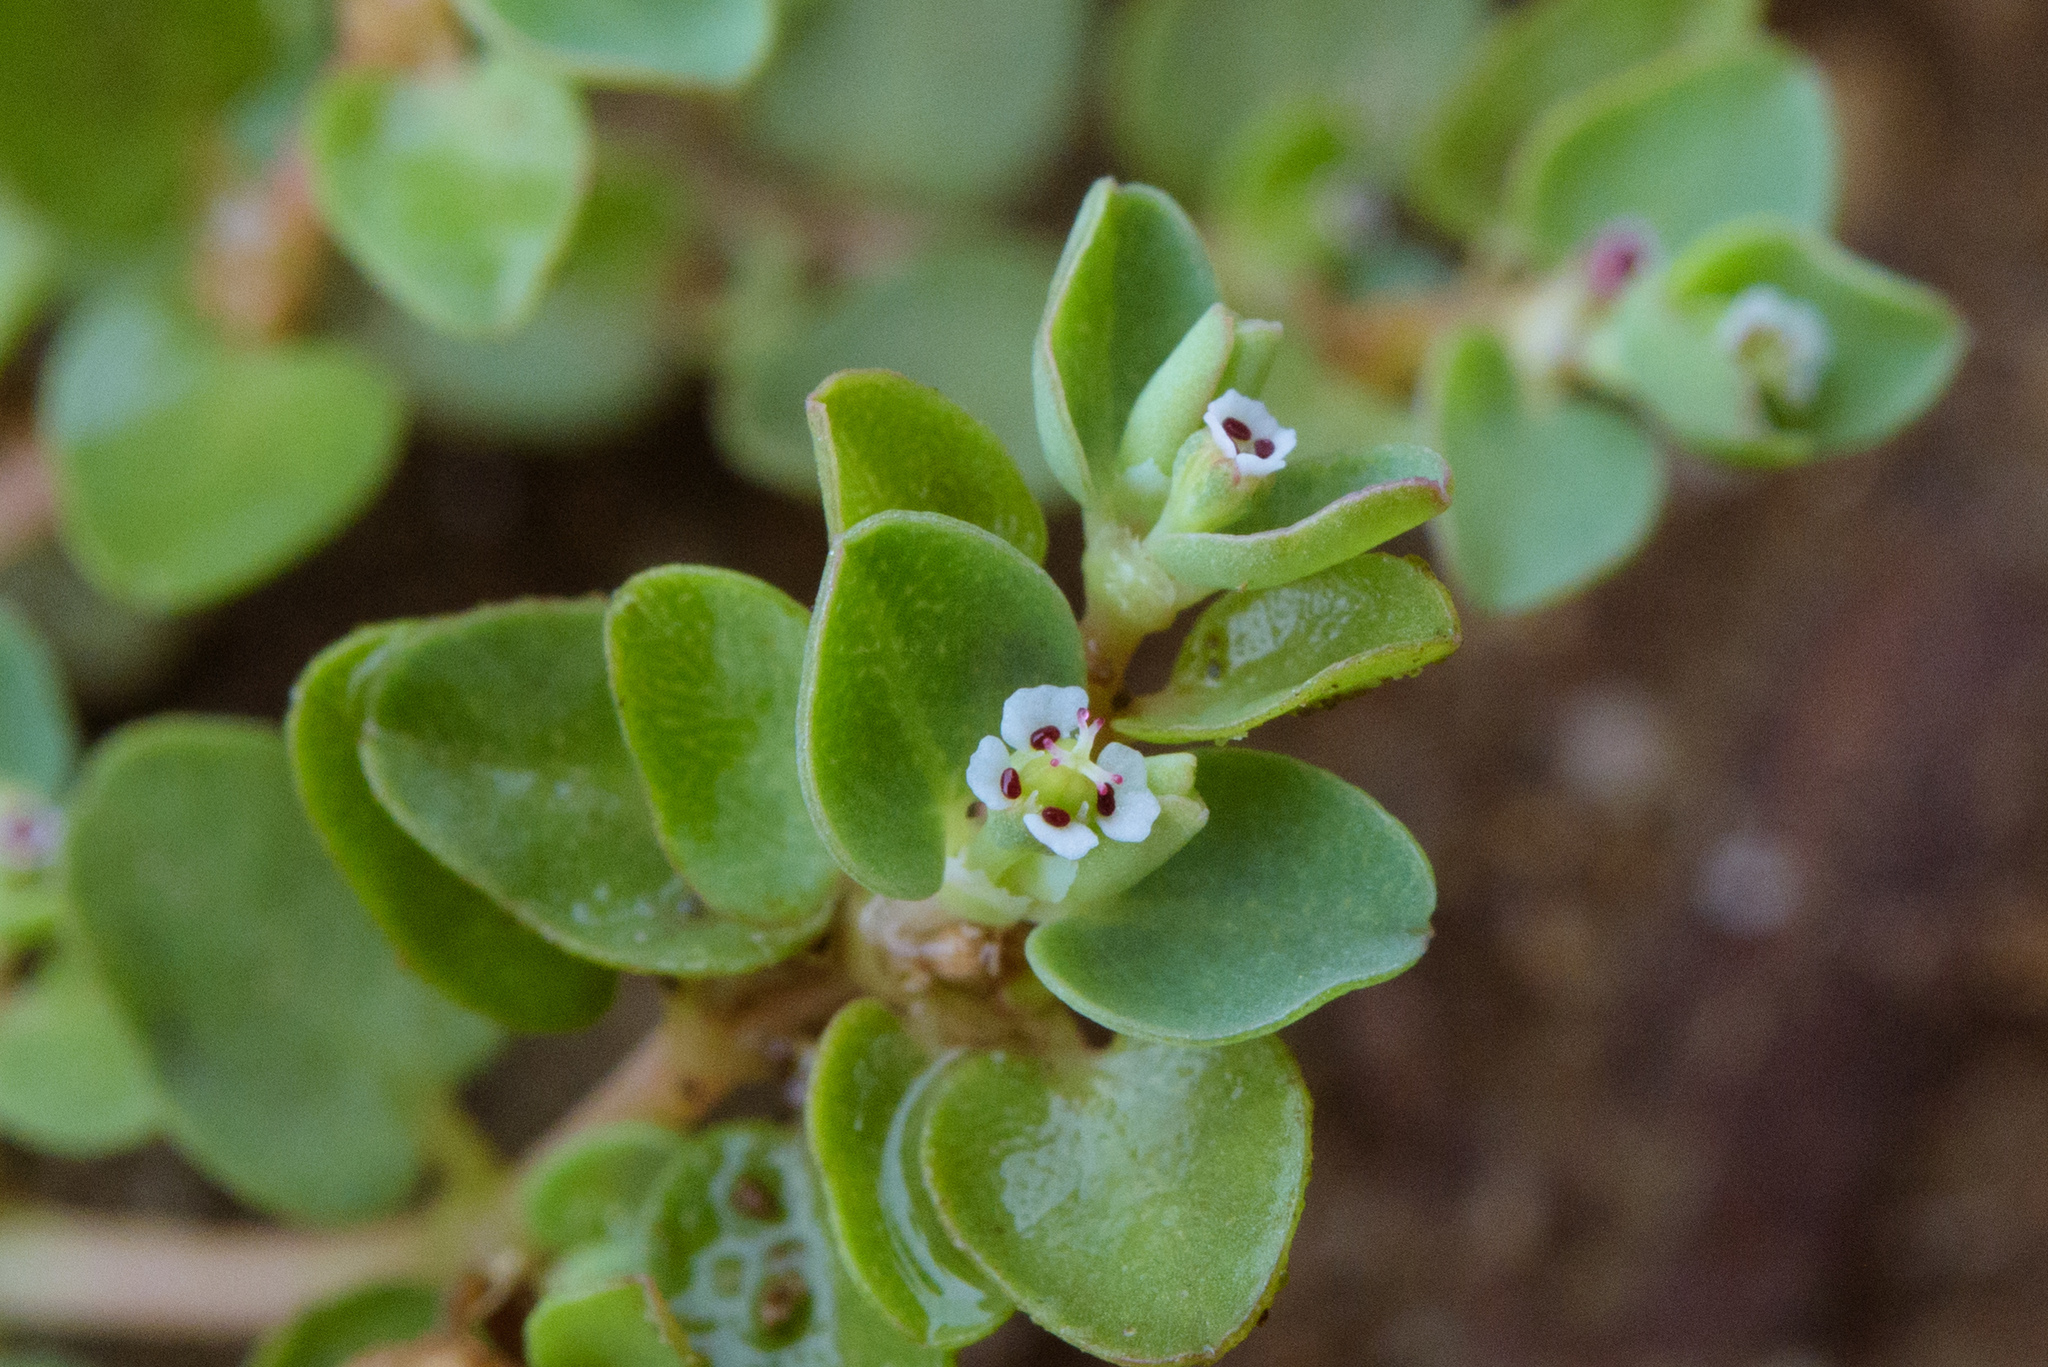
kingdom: Plantae
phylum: Tracheophyta
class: Magnoliopsida
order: Malpighiales
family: Euphorbiaceae
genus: Euphorbia
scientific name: Euphorbia serpens
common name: Matted sandmat
